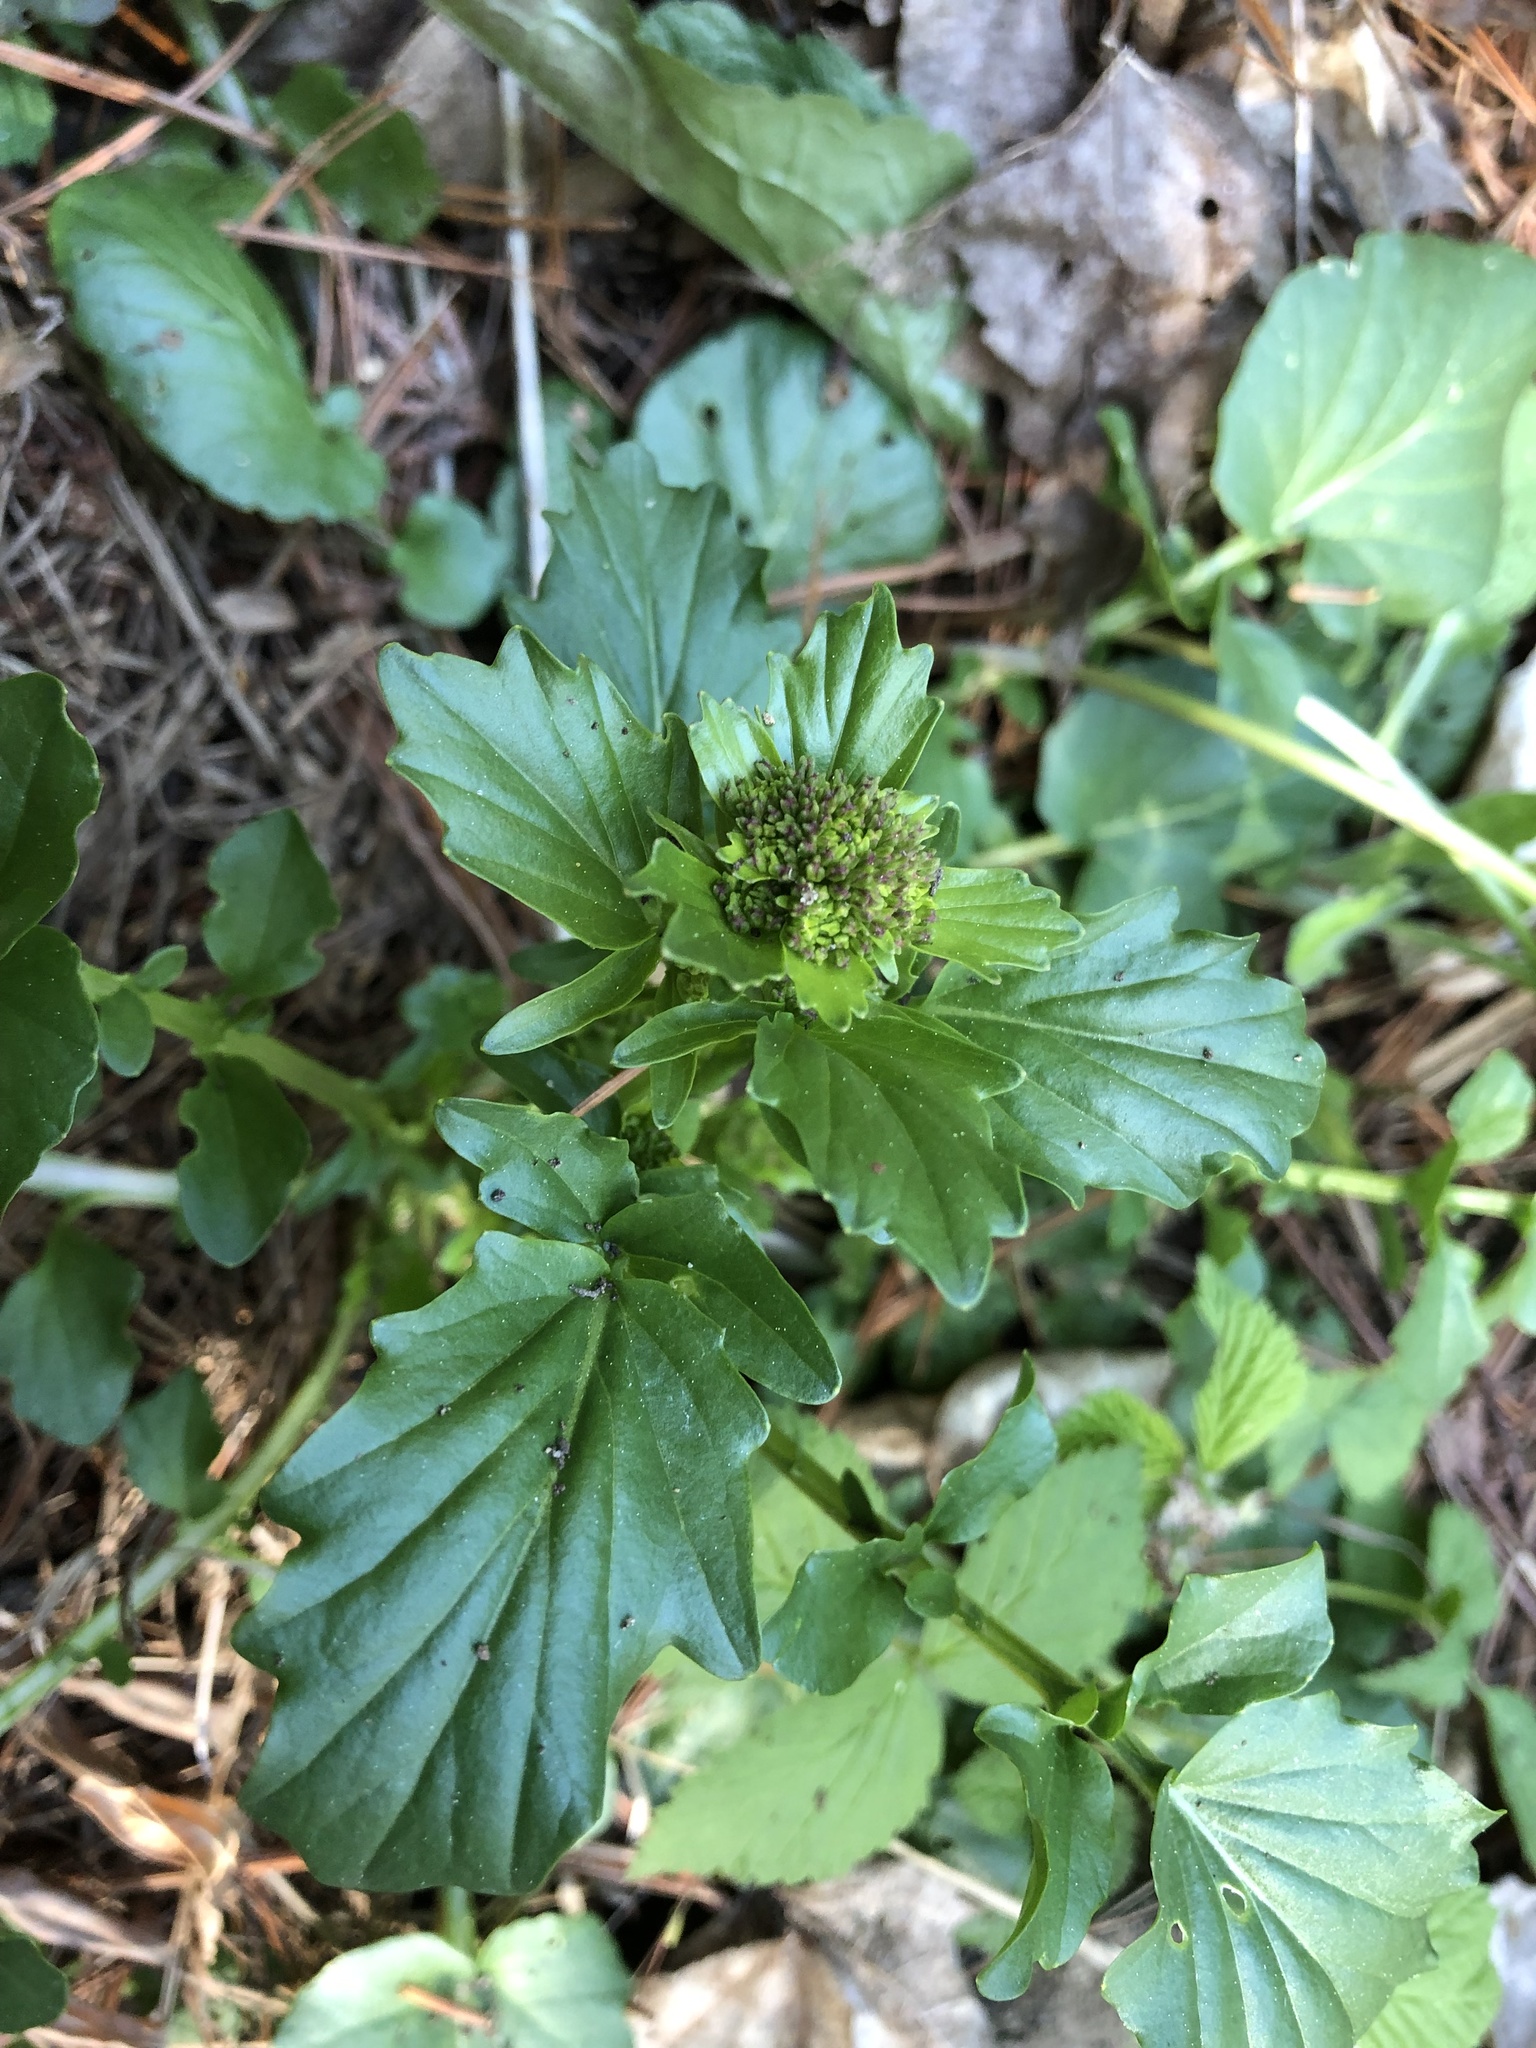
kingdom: Plantae
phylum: Tracheophyta
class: Magnoliopsida
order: Brassicales
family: Brassicaceae
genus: Barbarea
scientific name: Barbarea vulgaris
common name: Cressy-greens
